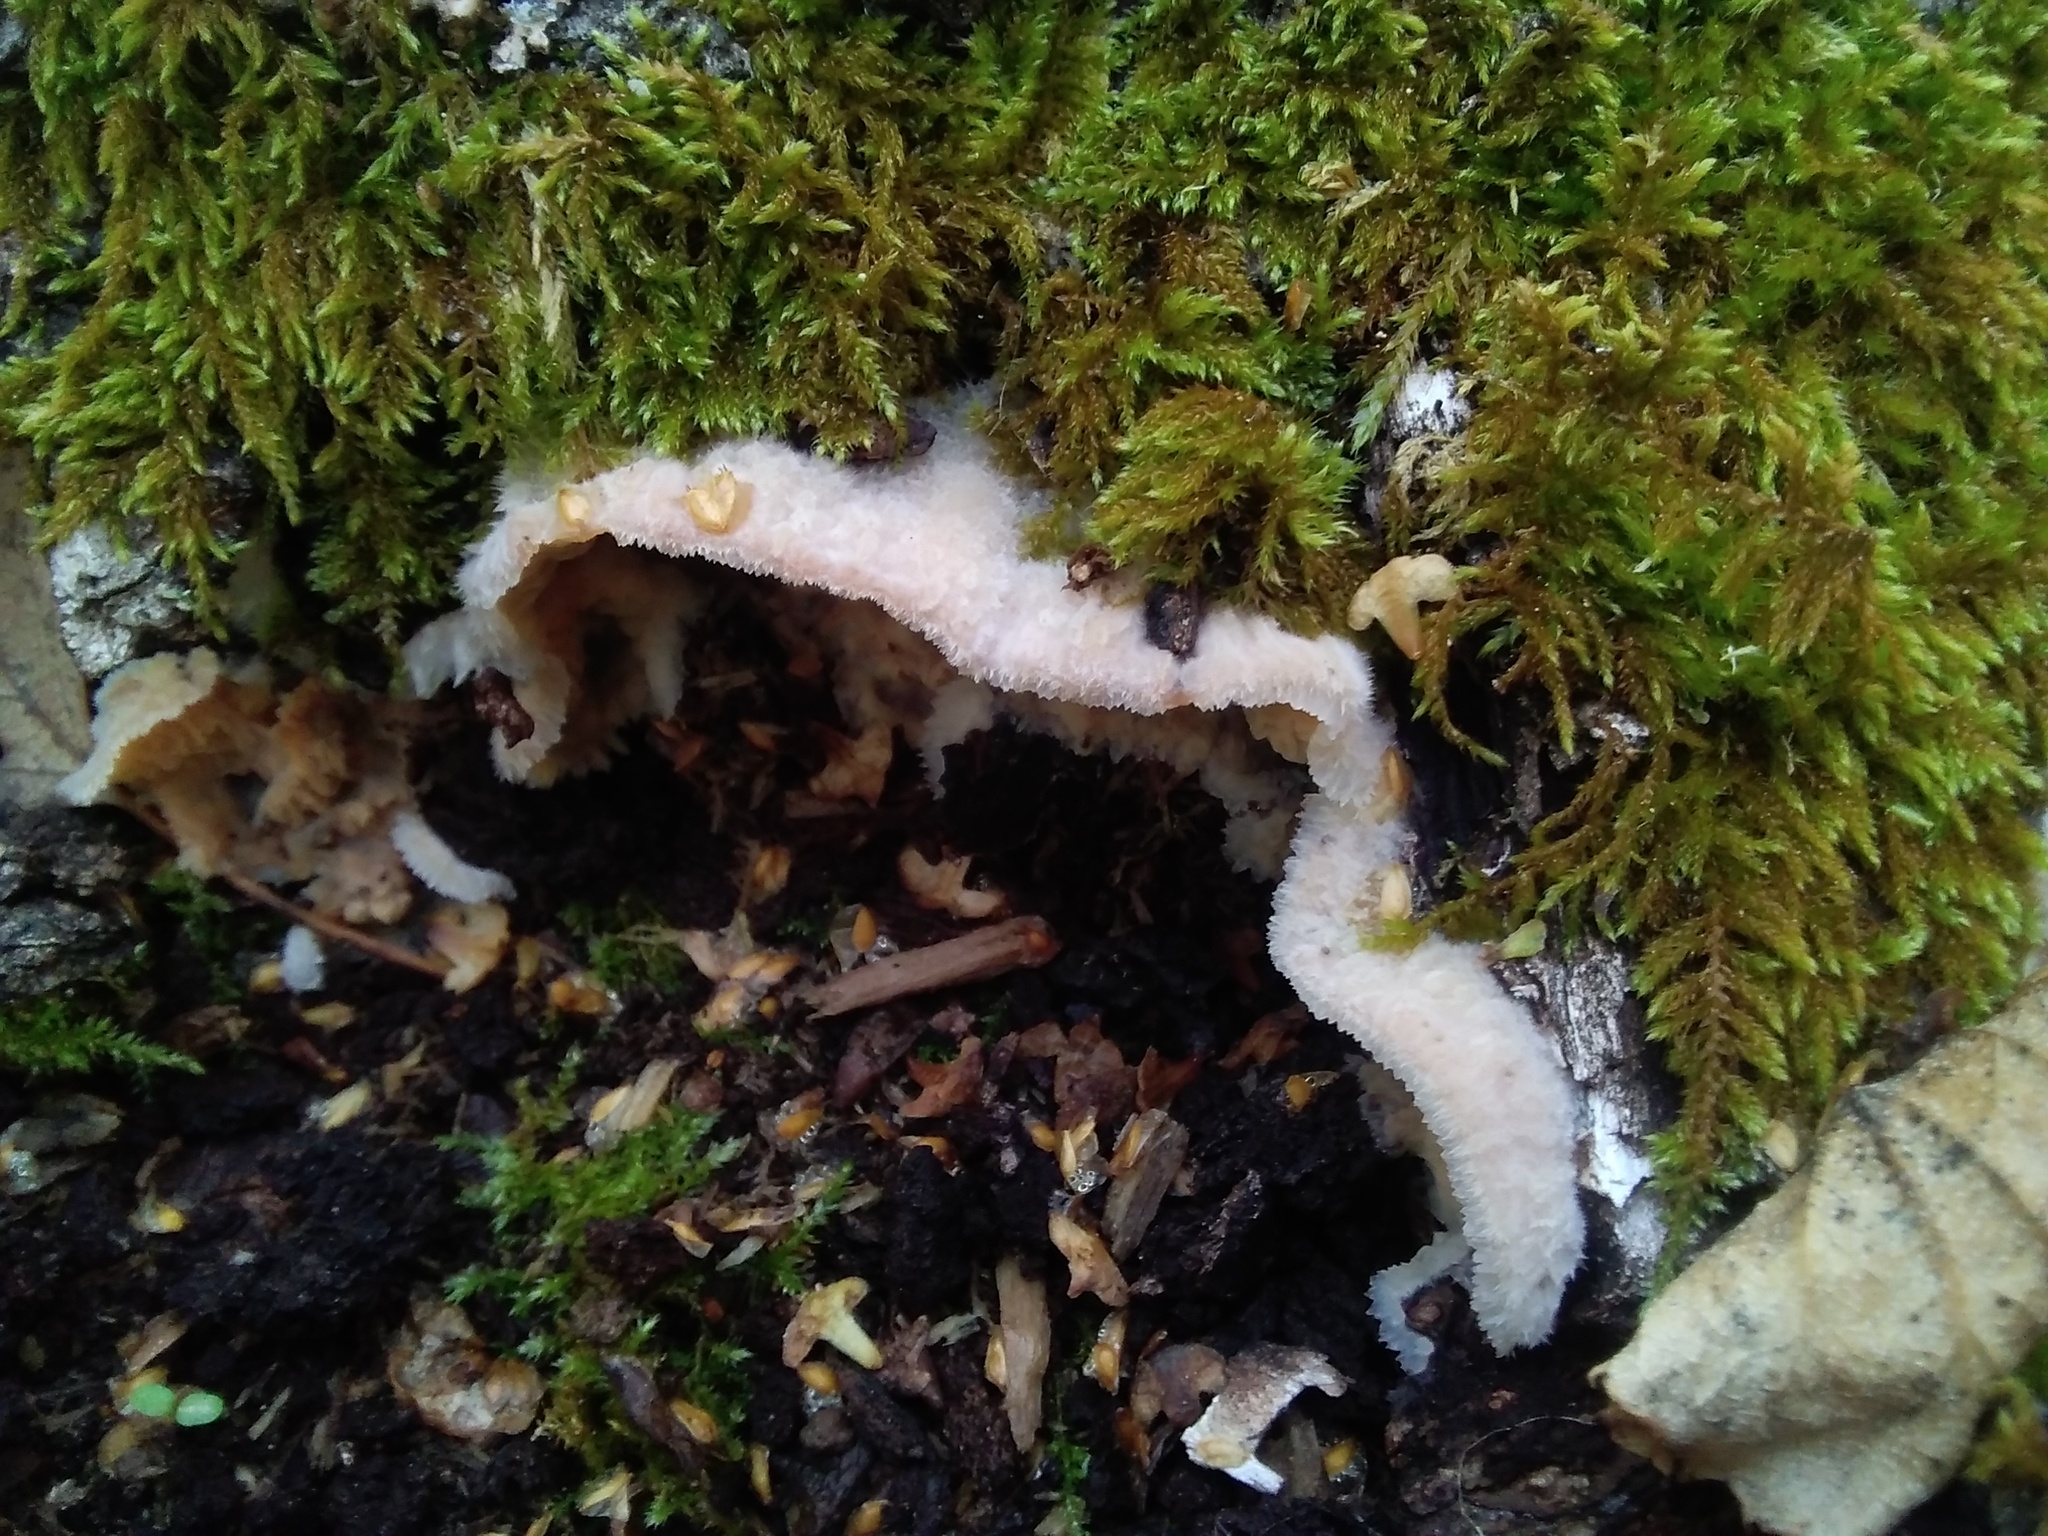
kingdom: Fungi
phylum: Basidiomycota
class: Agaricomycetes
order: Polyporales
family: Meruliaceae
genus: Phlebia
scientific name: Phlebia tremellosa
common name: Jelly rot
